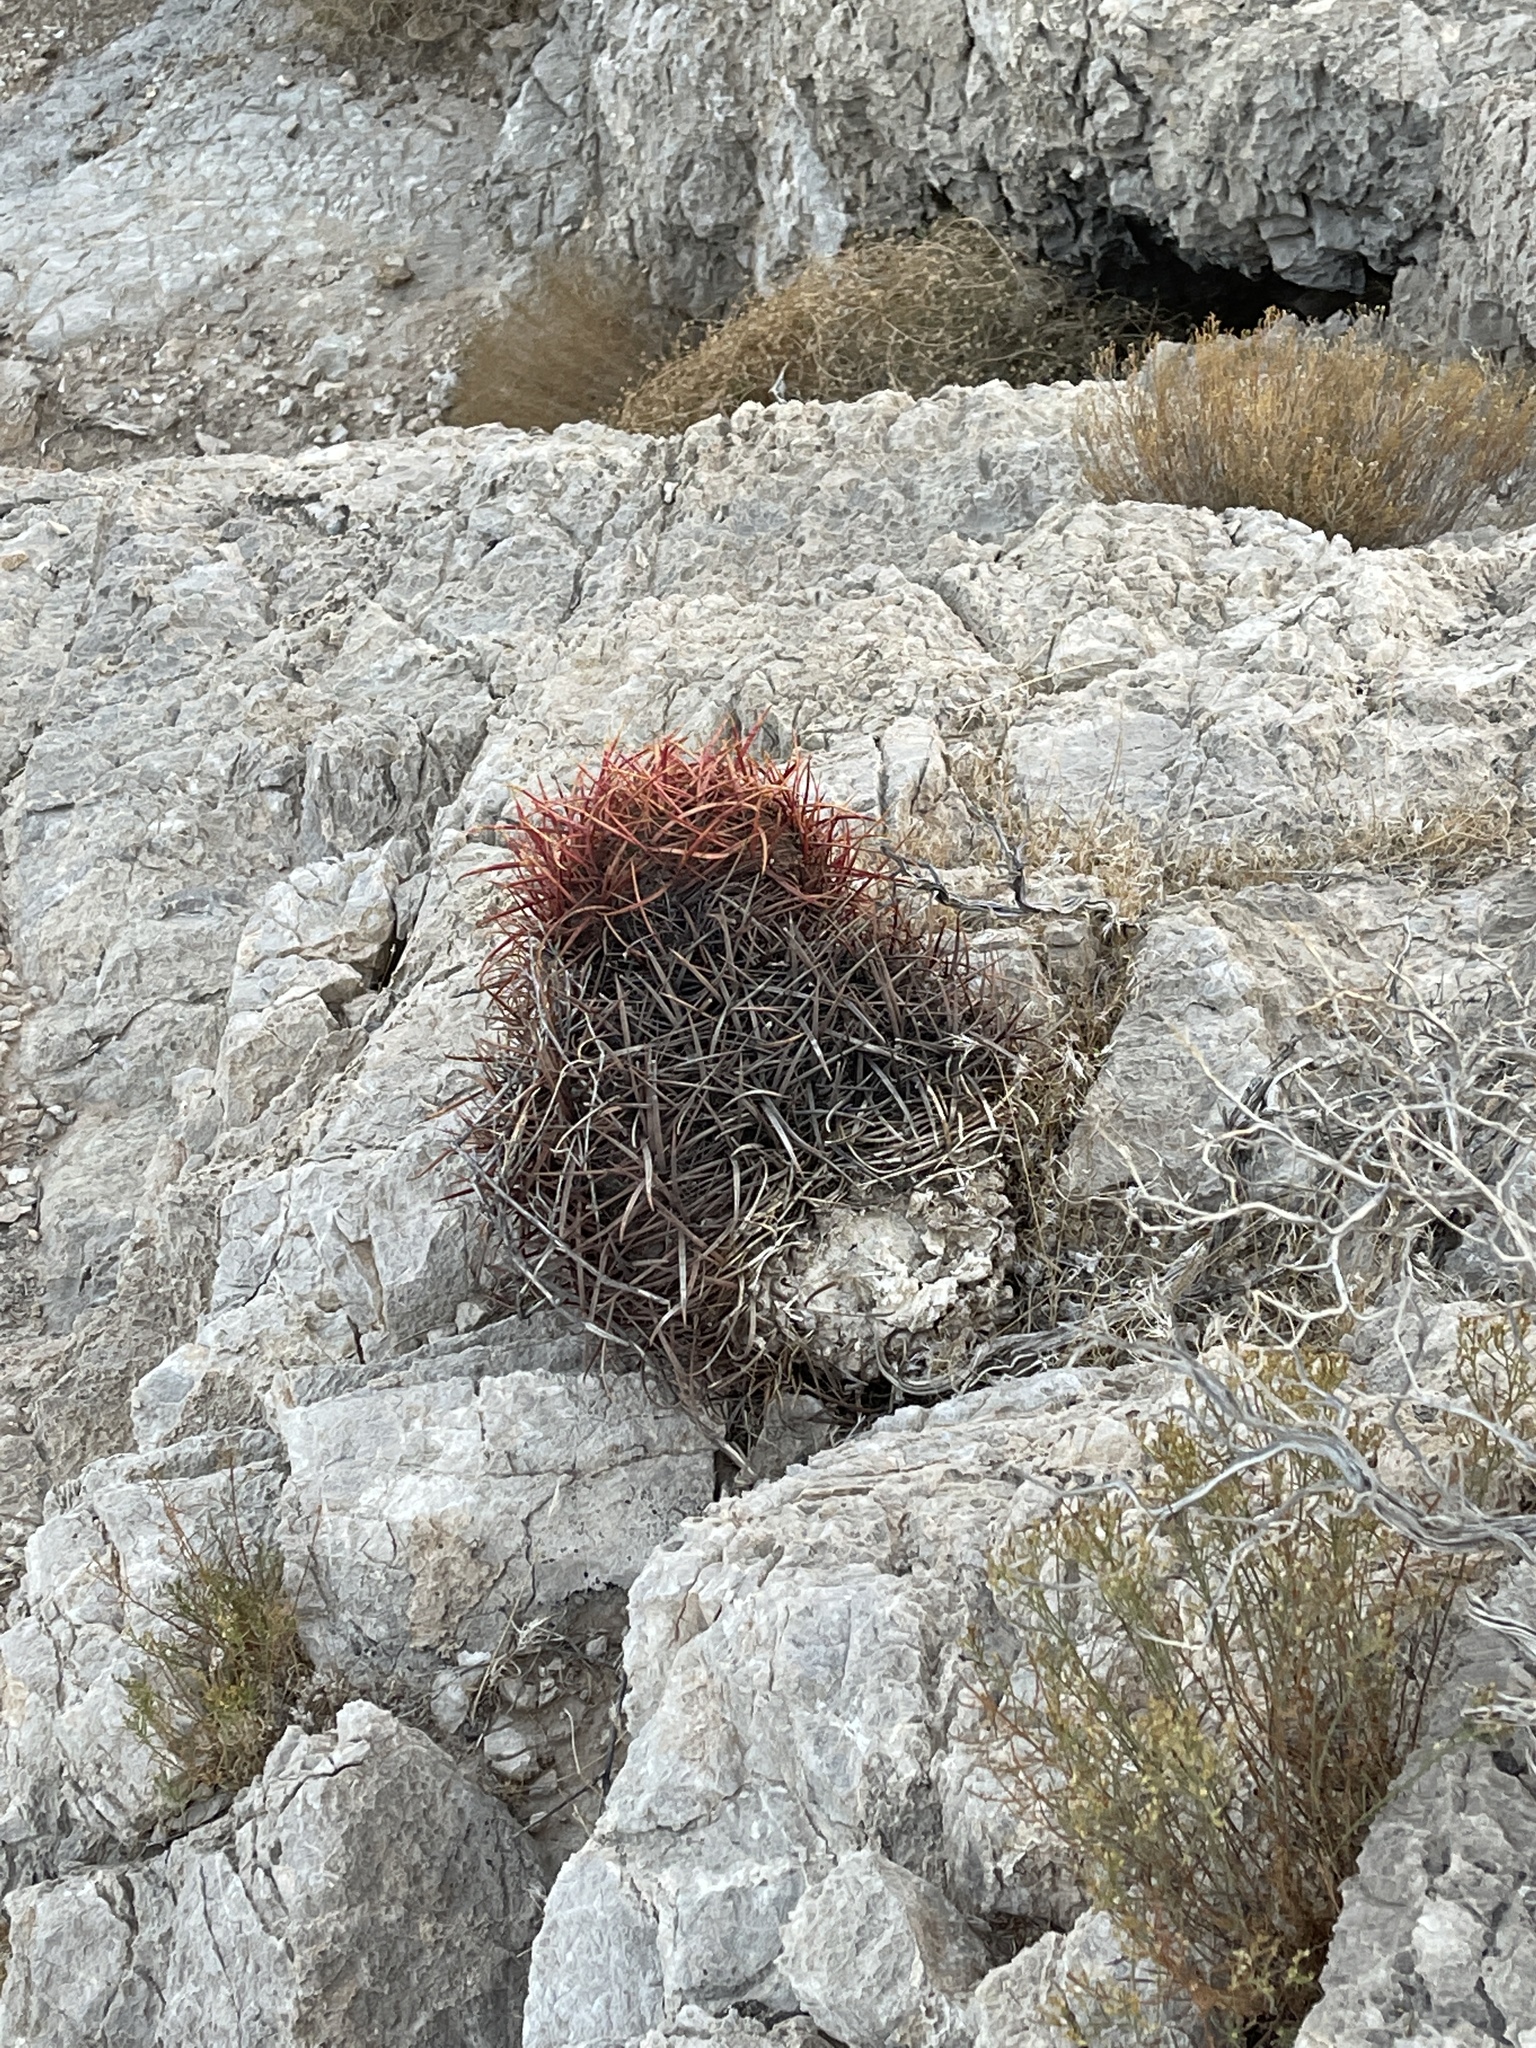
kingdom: Plantae
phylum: Tracheophyta
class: Magnoliopsida
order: Caryophyllales
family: Cactaceae
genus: Ferocactus
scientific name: Ferocactus cylindraceus
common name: California barrel cactus
